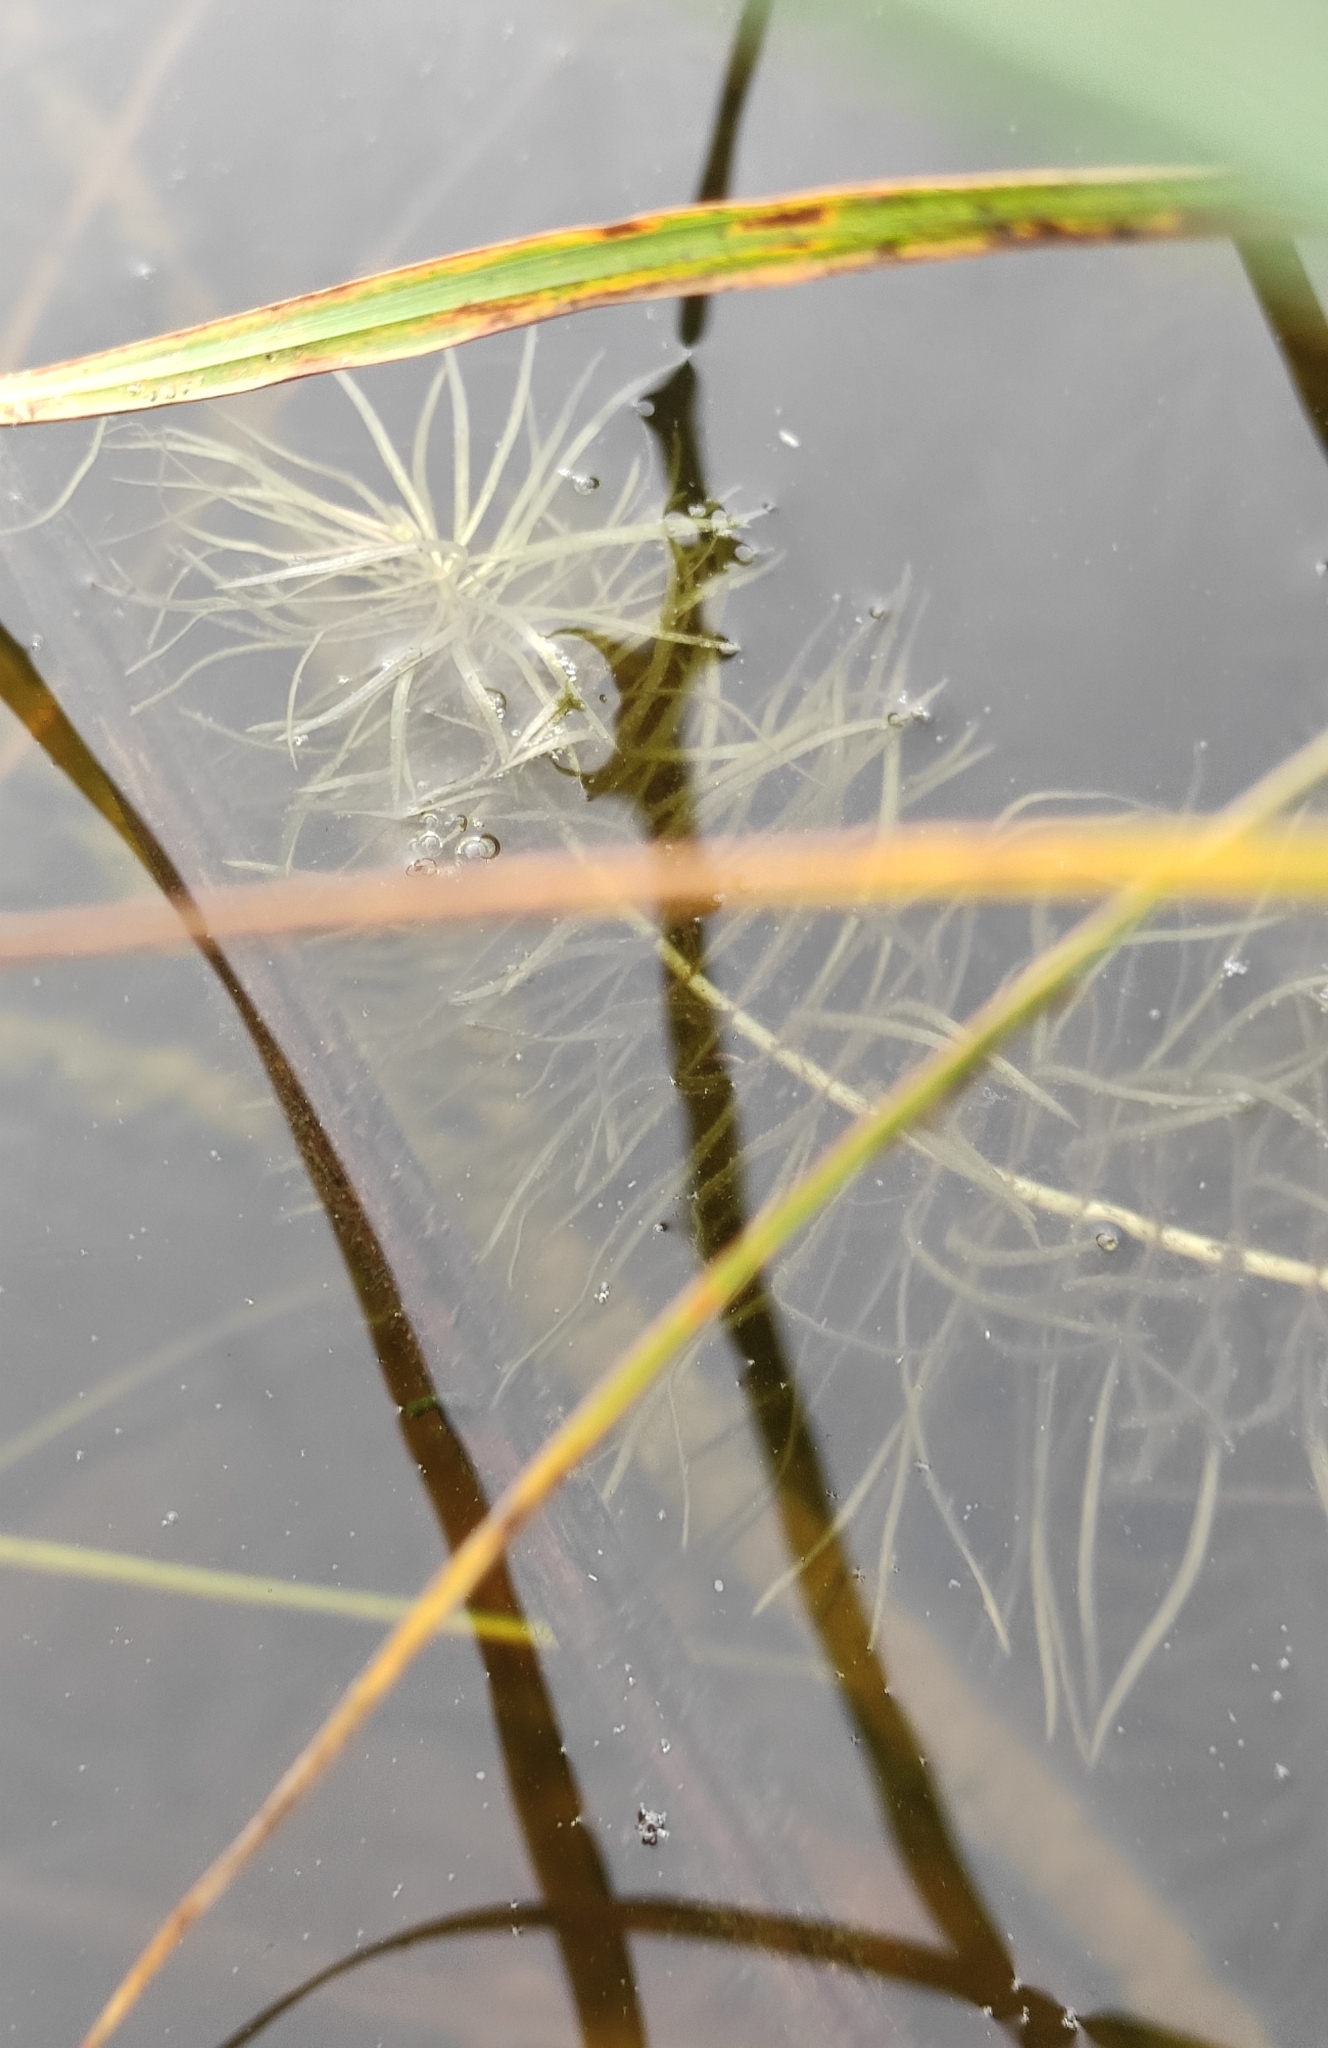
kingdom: Plantae
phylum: Tracheophyta
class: Magnoliopsida
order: Lamiales
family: Plantaginaceae
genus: Hippuris
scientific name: Hippuris vulgaris
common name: Mare's-tail
